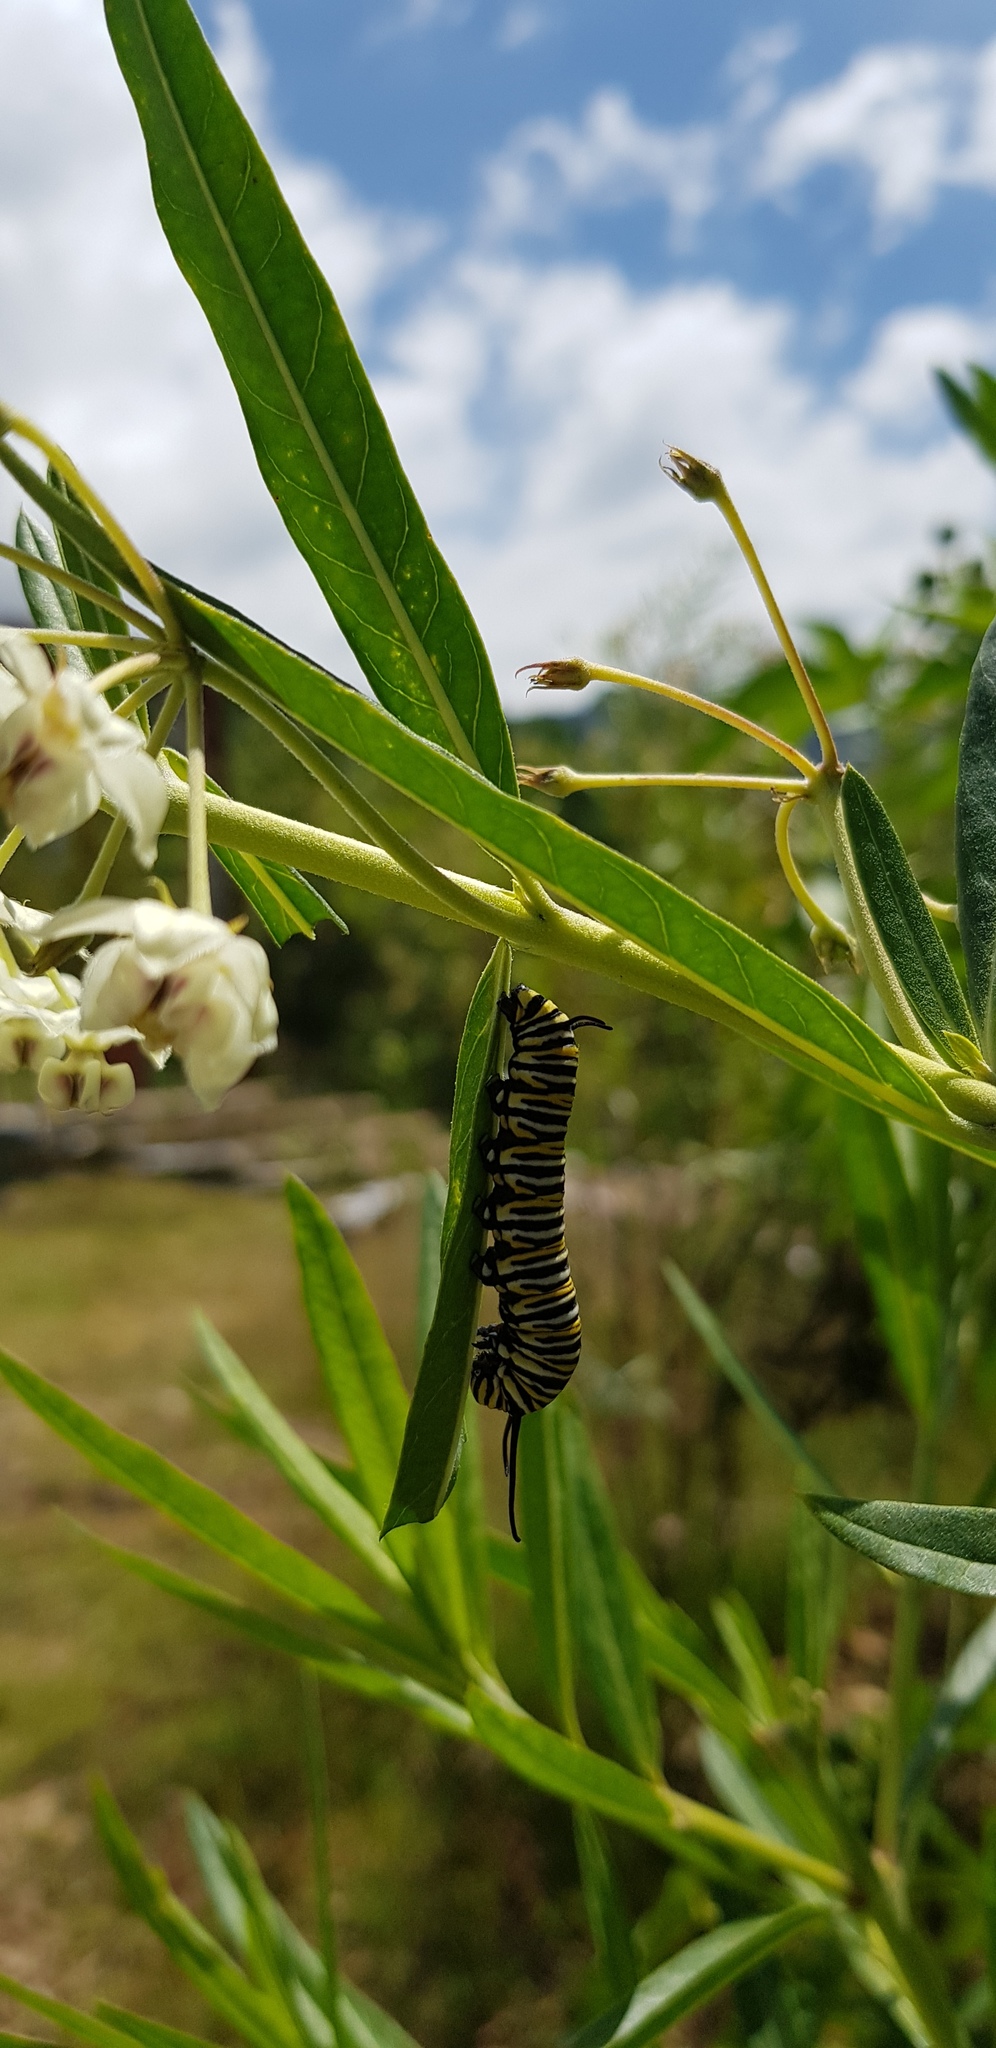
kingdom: Animalia
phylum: Arthropoda
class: Insecta
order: Lepidoptera
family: Nymphalidae
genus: Danaus
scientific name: Danaus plexippus
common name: Monarch
